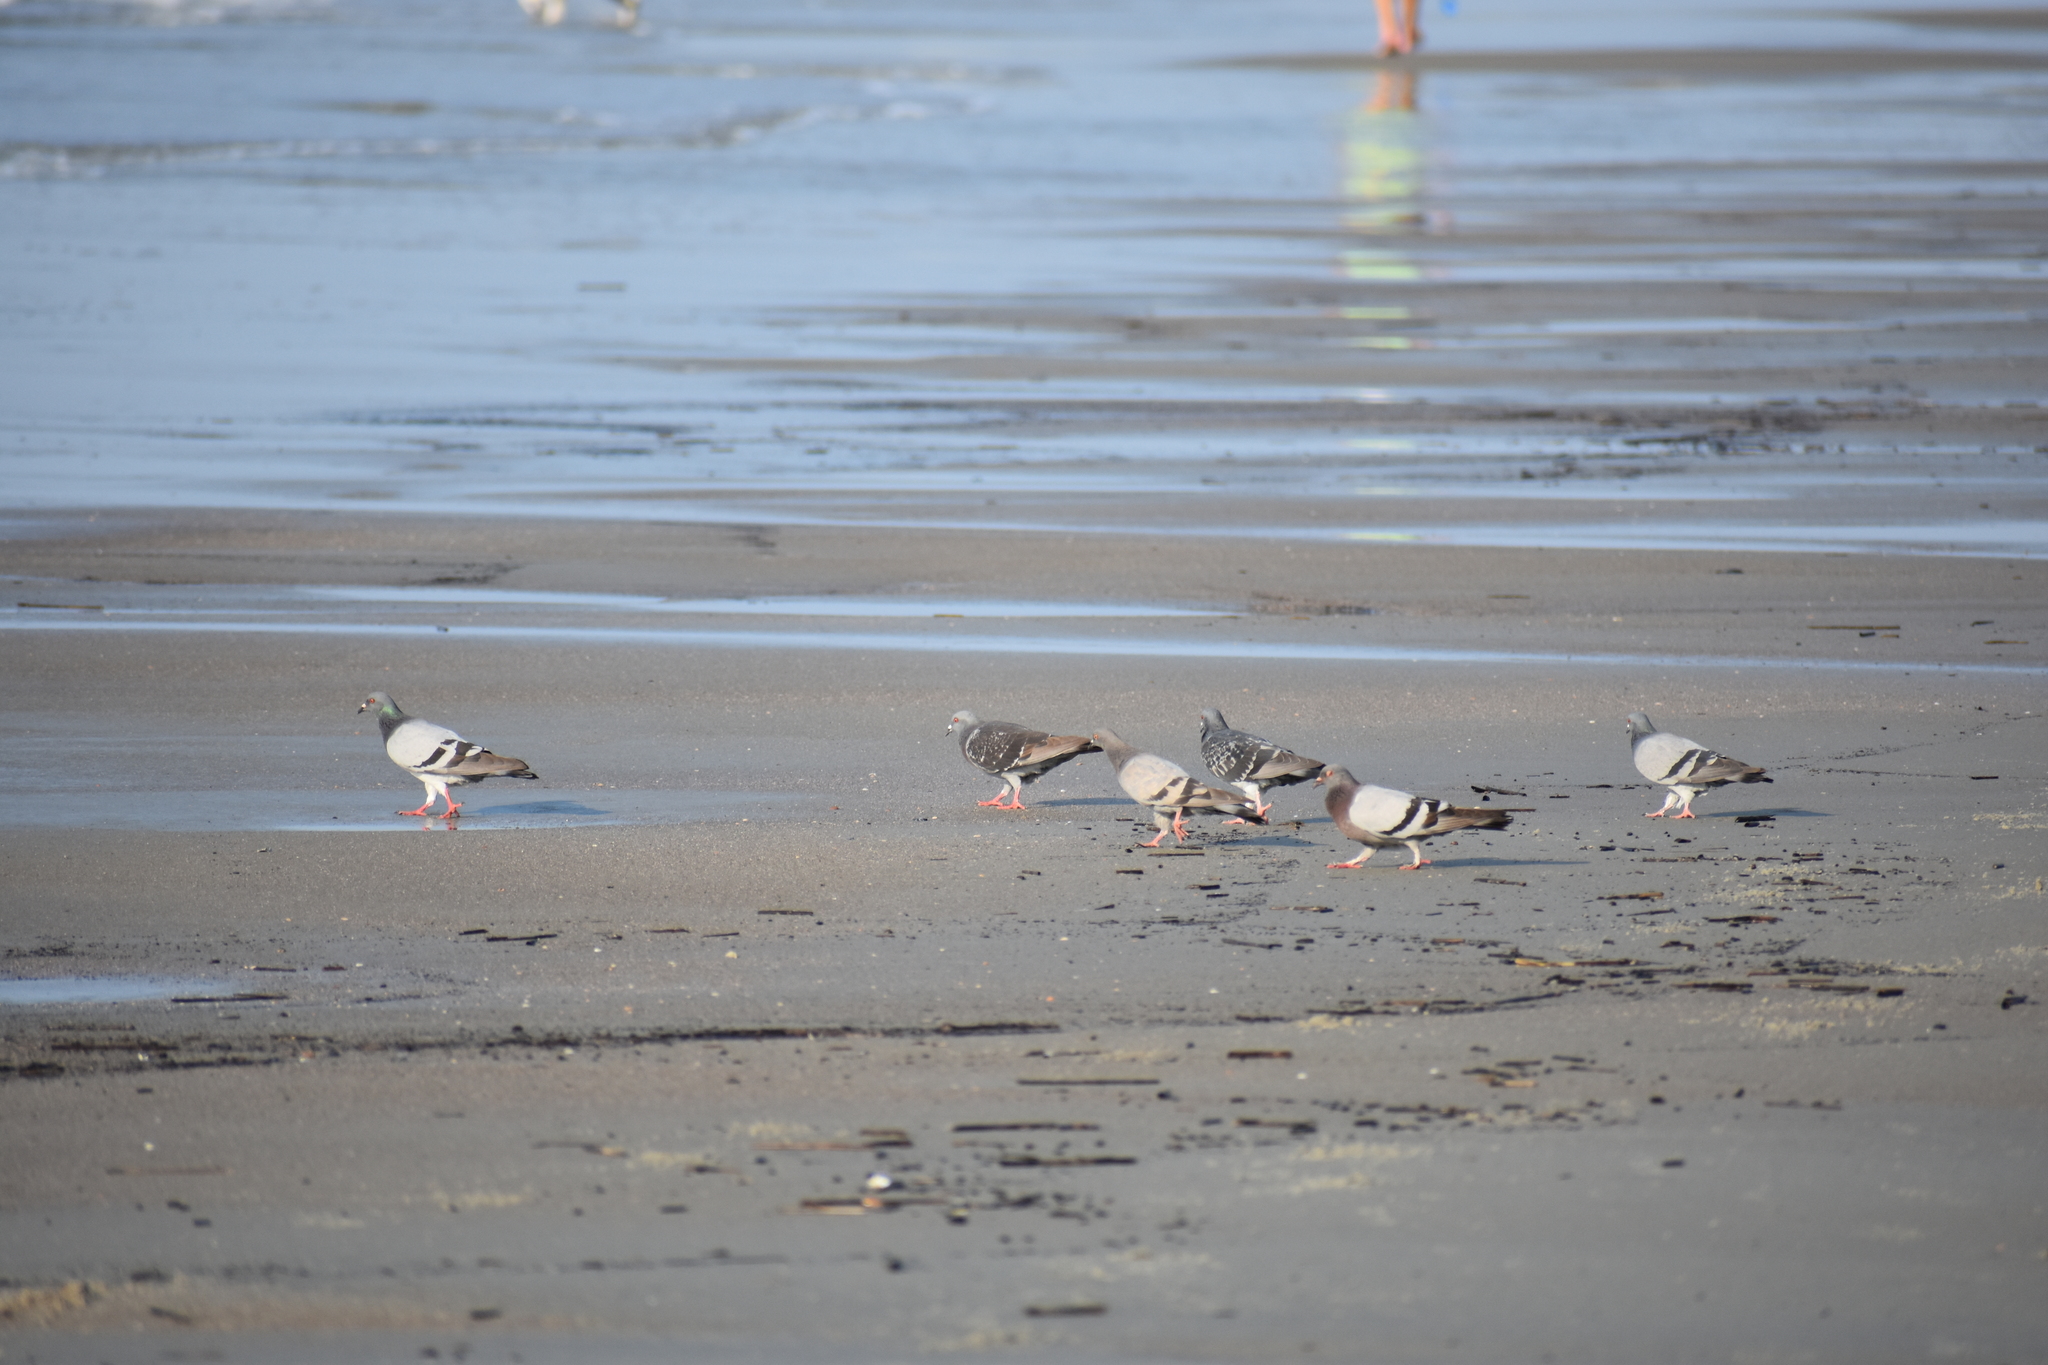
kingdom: Animalia
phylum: Chordata
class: Aves
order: Columbiformes
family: Columbidae
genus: Columba
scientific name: Columba livia
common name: Rock pigeon
